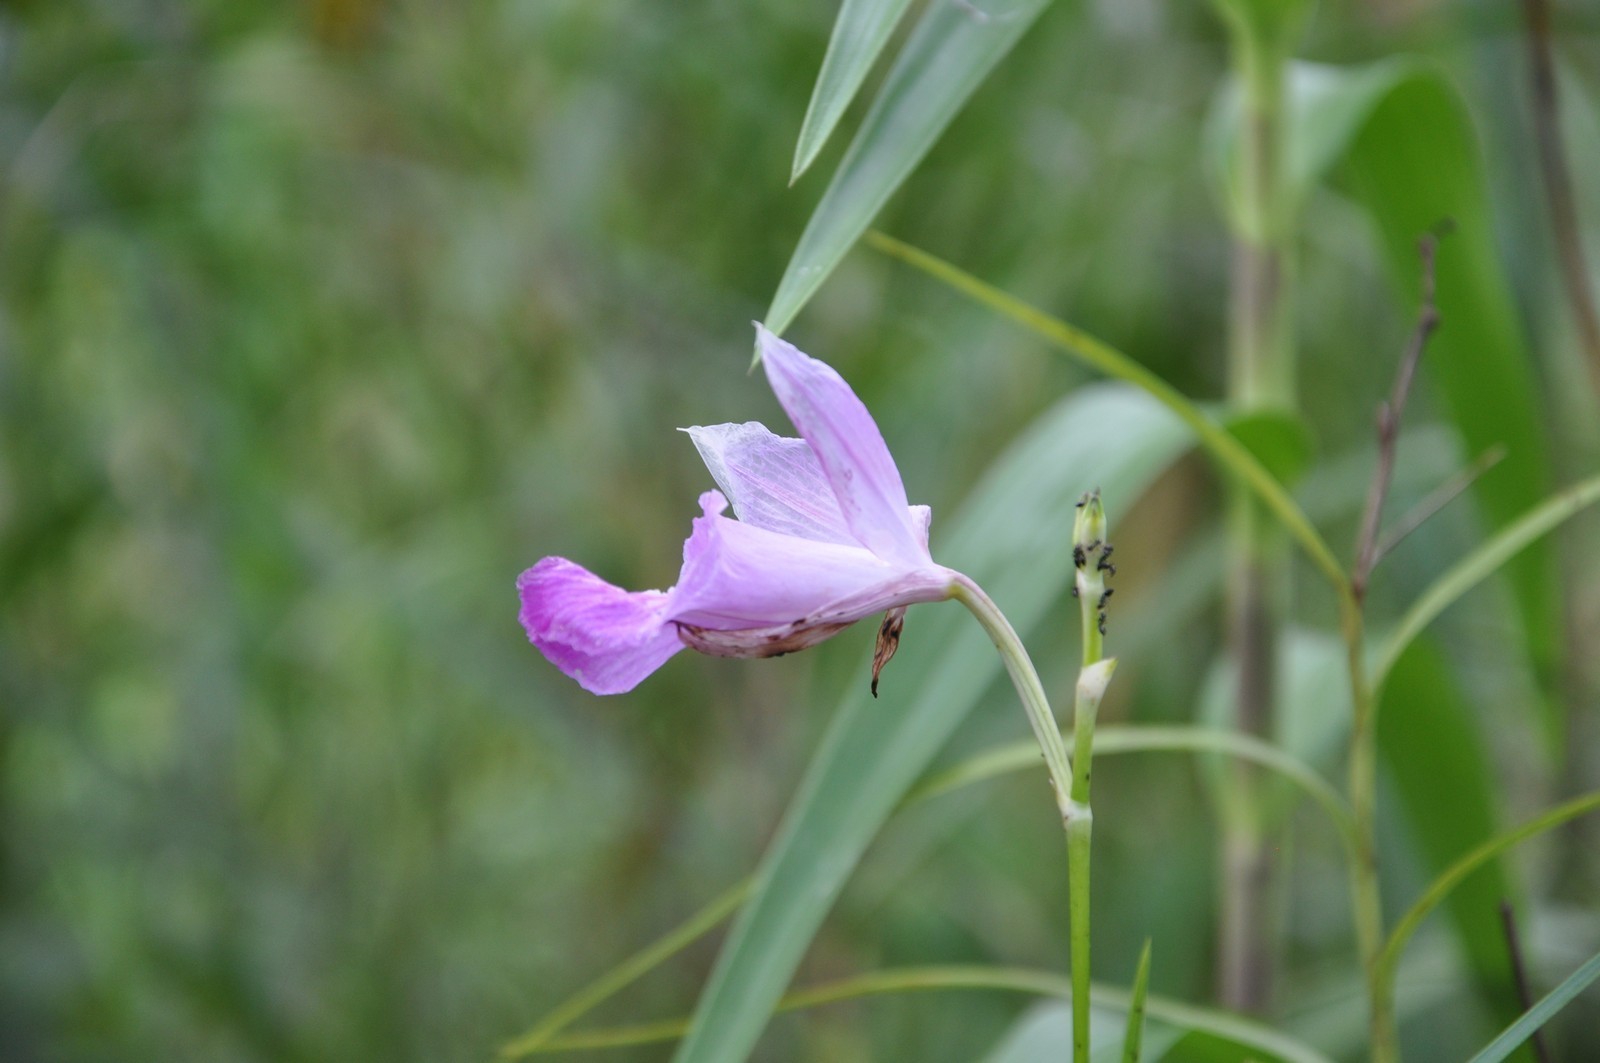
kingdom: Plantae
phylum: Tracheophyta
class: Liliopsida
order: Asparagales
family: Orchidaceae
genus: Arundina
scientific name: Arundina graminifolia
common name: Bamboo orchid
